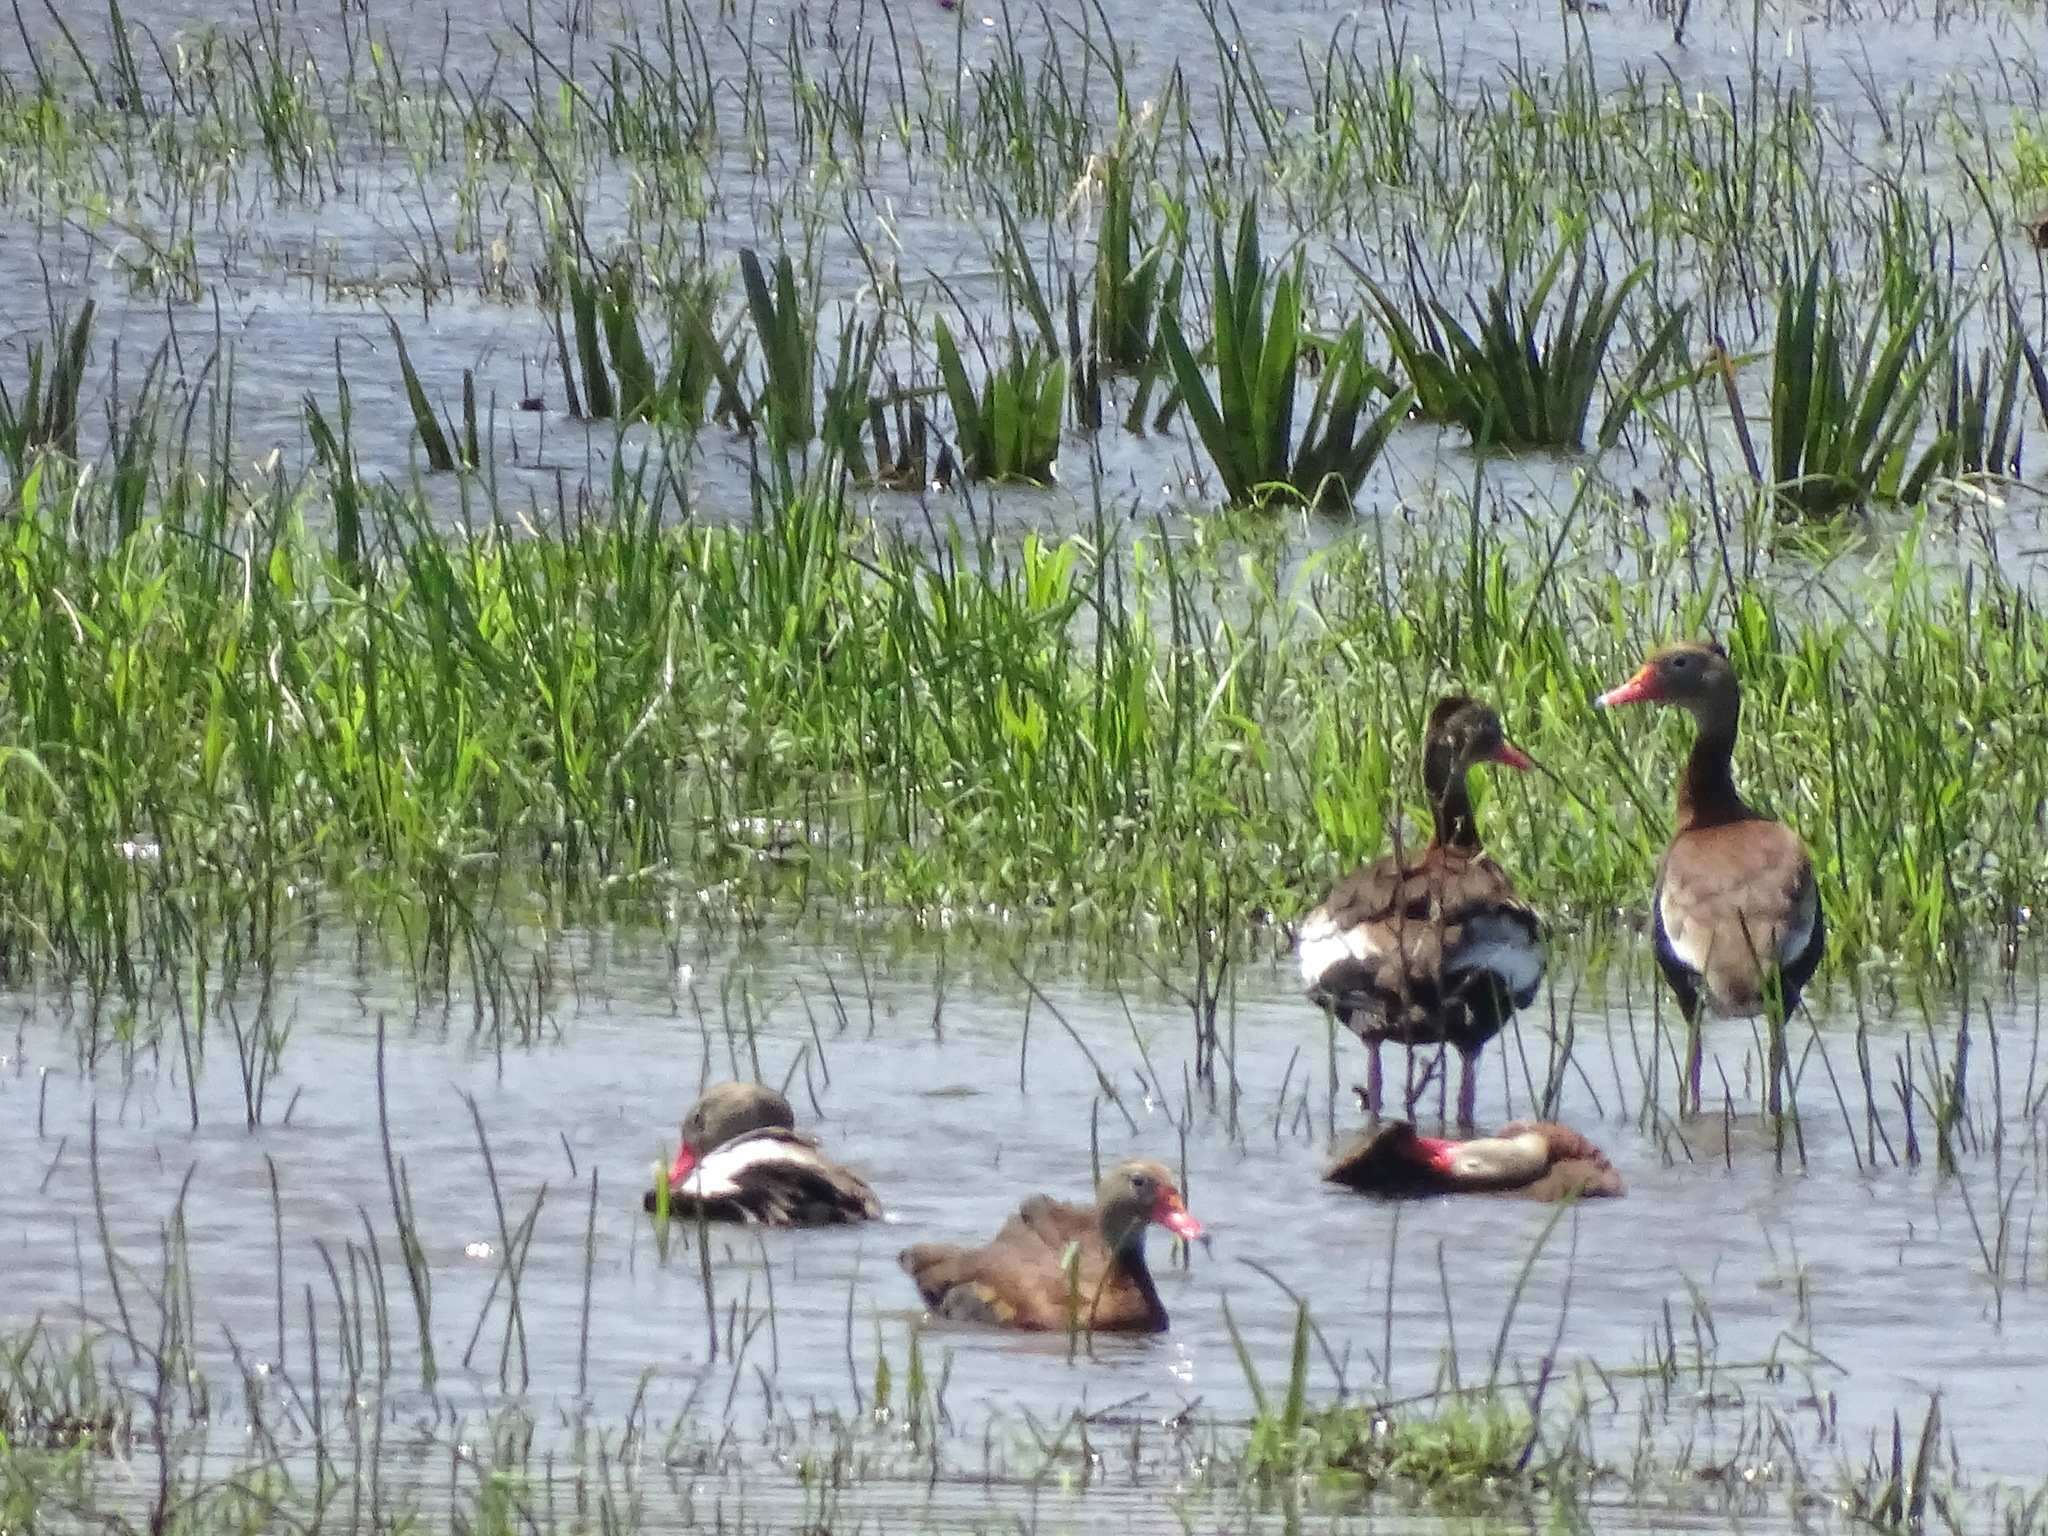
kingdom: Animalia
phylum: Chordata
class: Aves
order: Anseriformes
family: Anatidae
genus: Dendrocygna
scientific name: Dendrocygna autumnalis
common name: Black-bellied whistling duck
